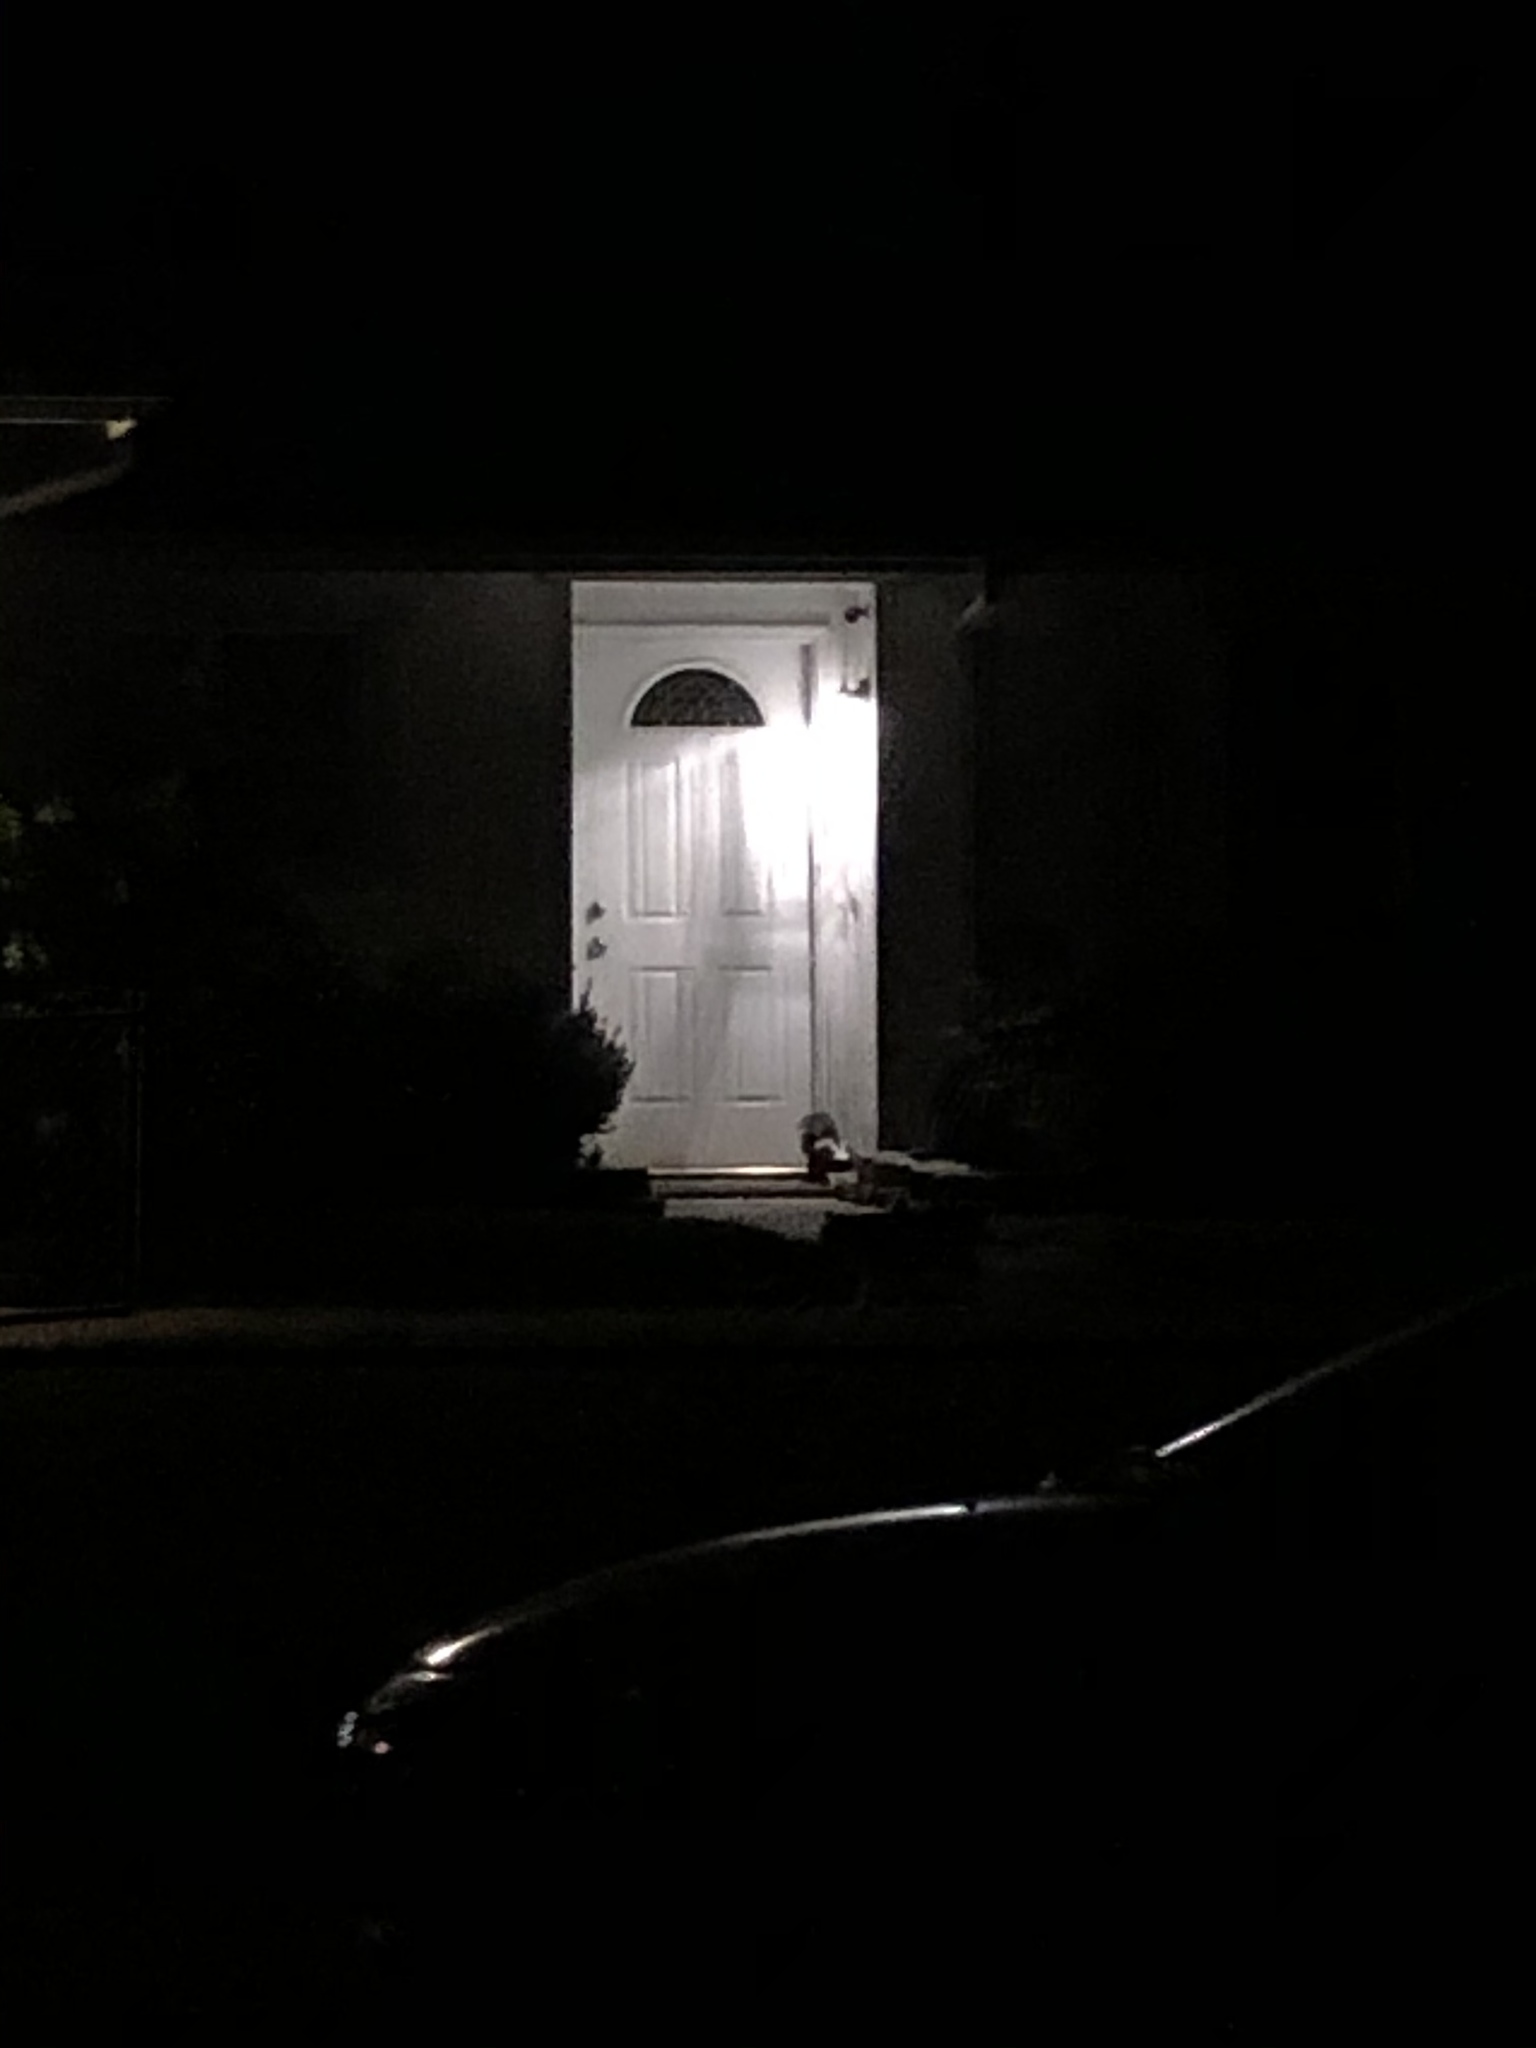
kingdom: Animalia
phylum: Chordata
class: Mammalia
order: Carnivora
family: Mephitidae
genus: Mephitis
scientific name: Mephitis mephitis
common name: Striped skunk
